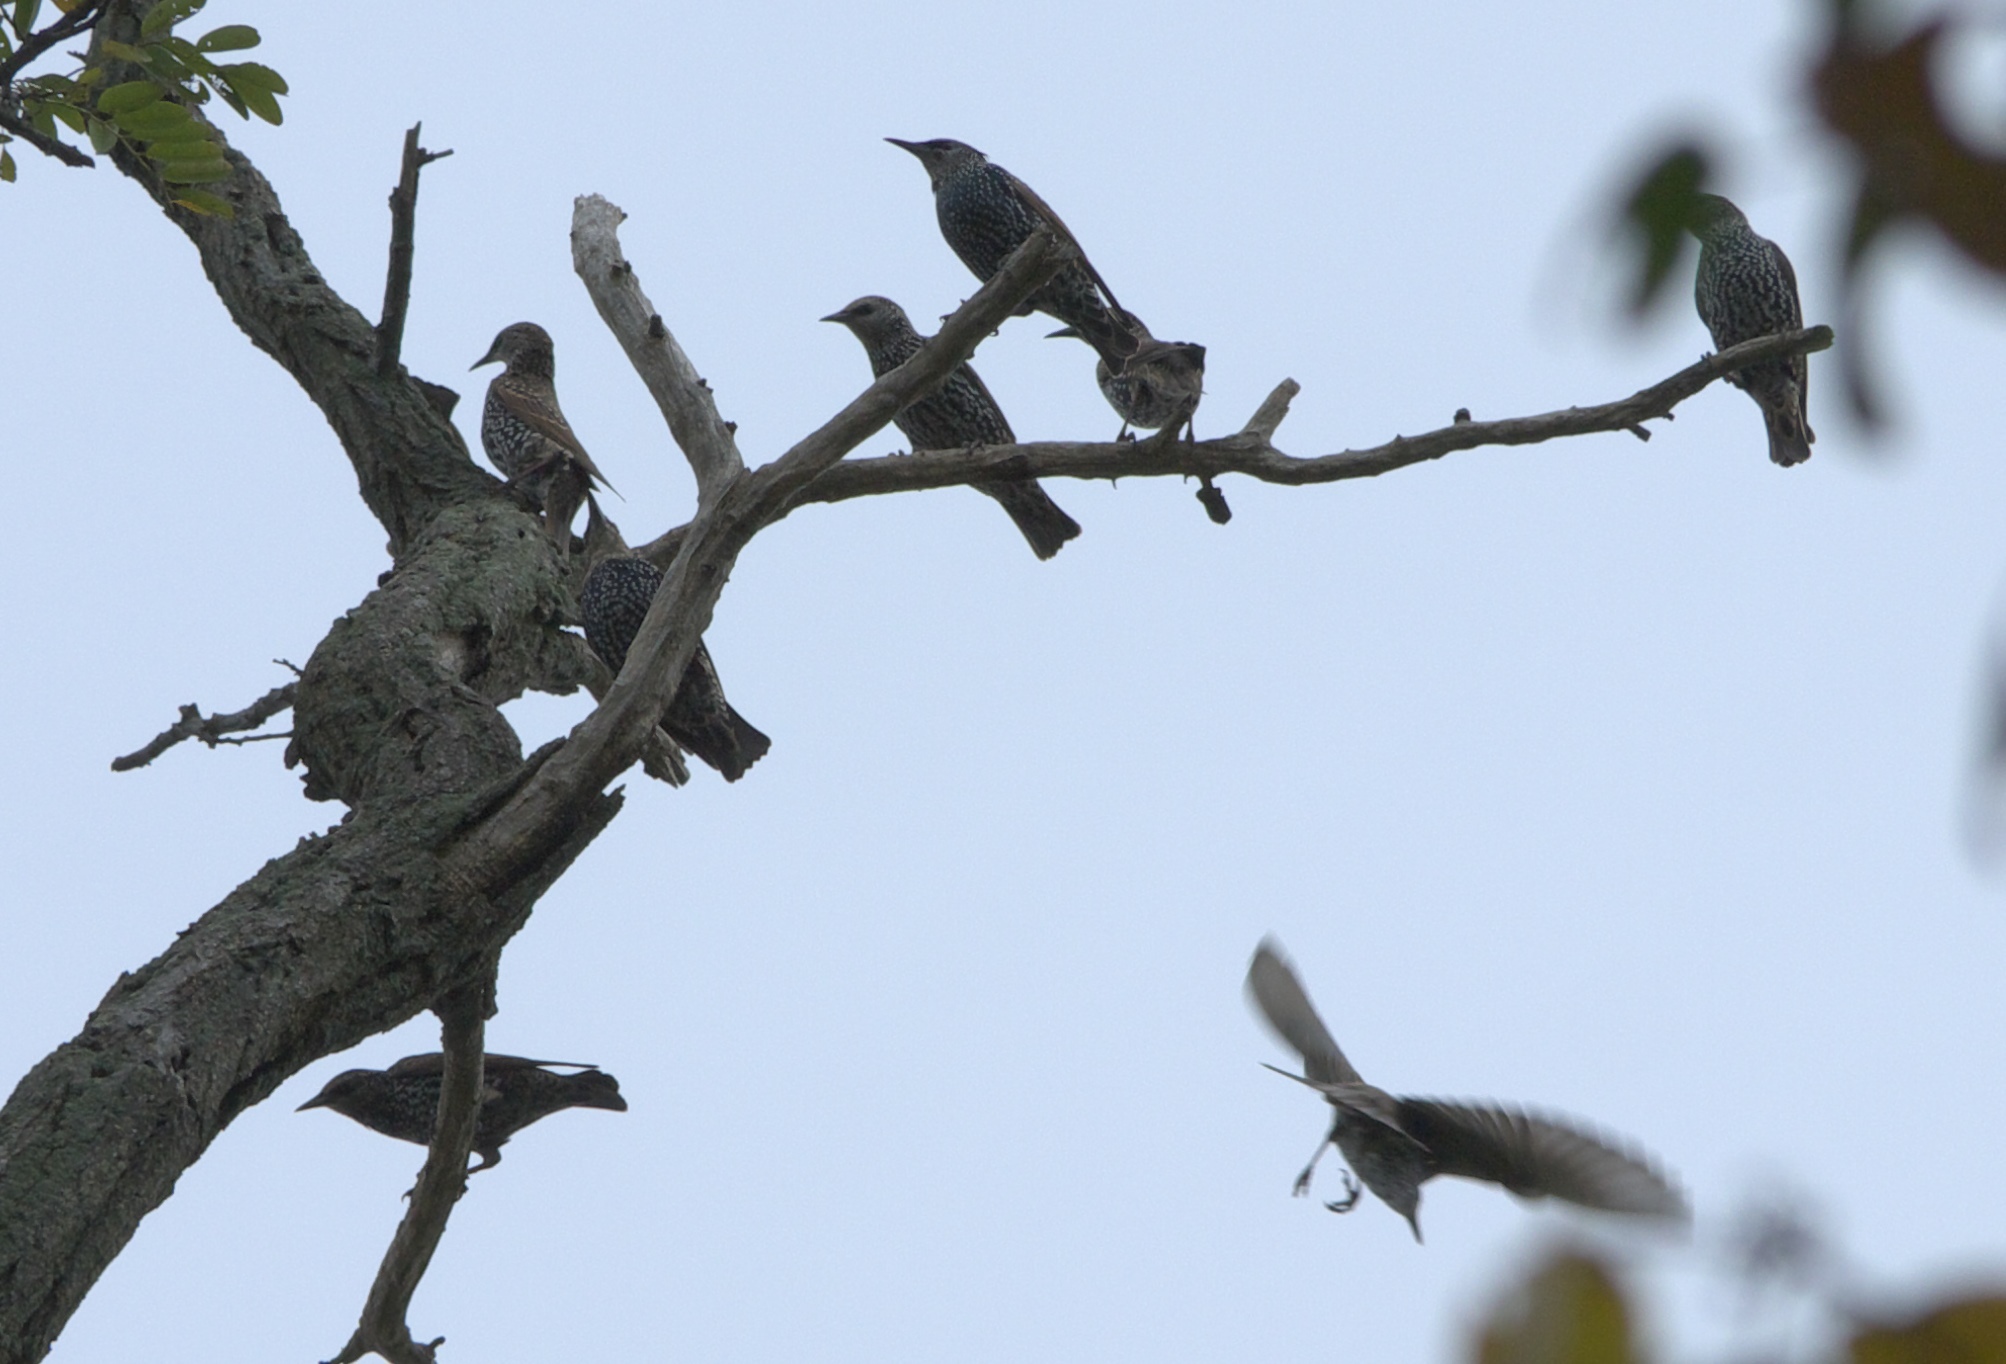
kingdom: Animalia
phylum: Chordata
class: Aves
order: Passeriformes
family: Sturnidae
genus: Sturnus
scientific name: Sturnus vulgaris
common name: Common starling
